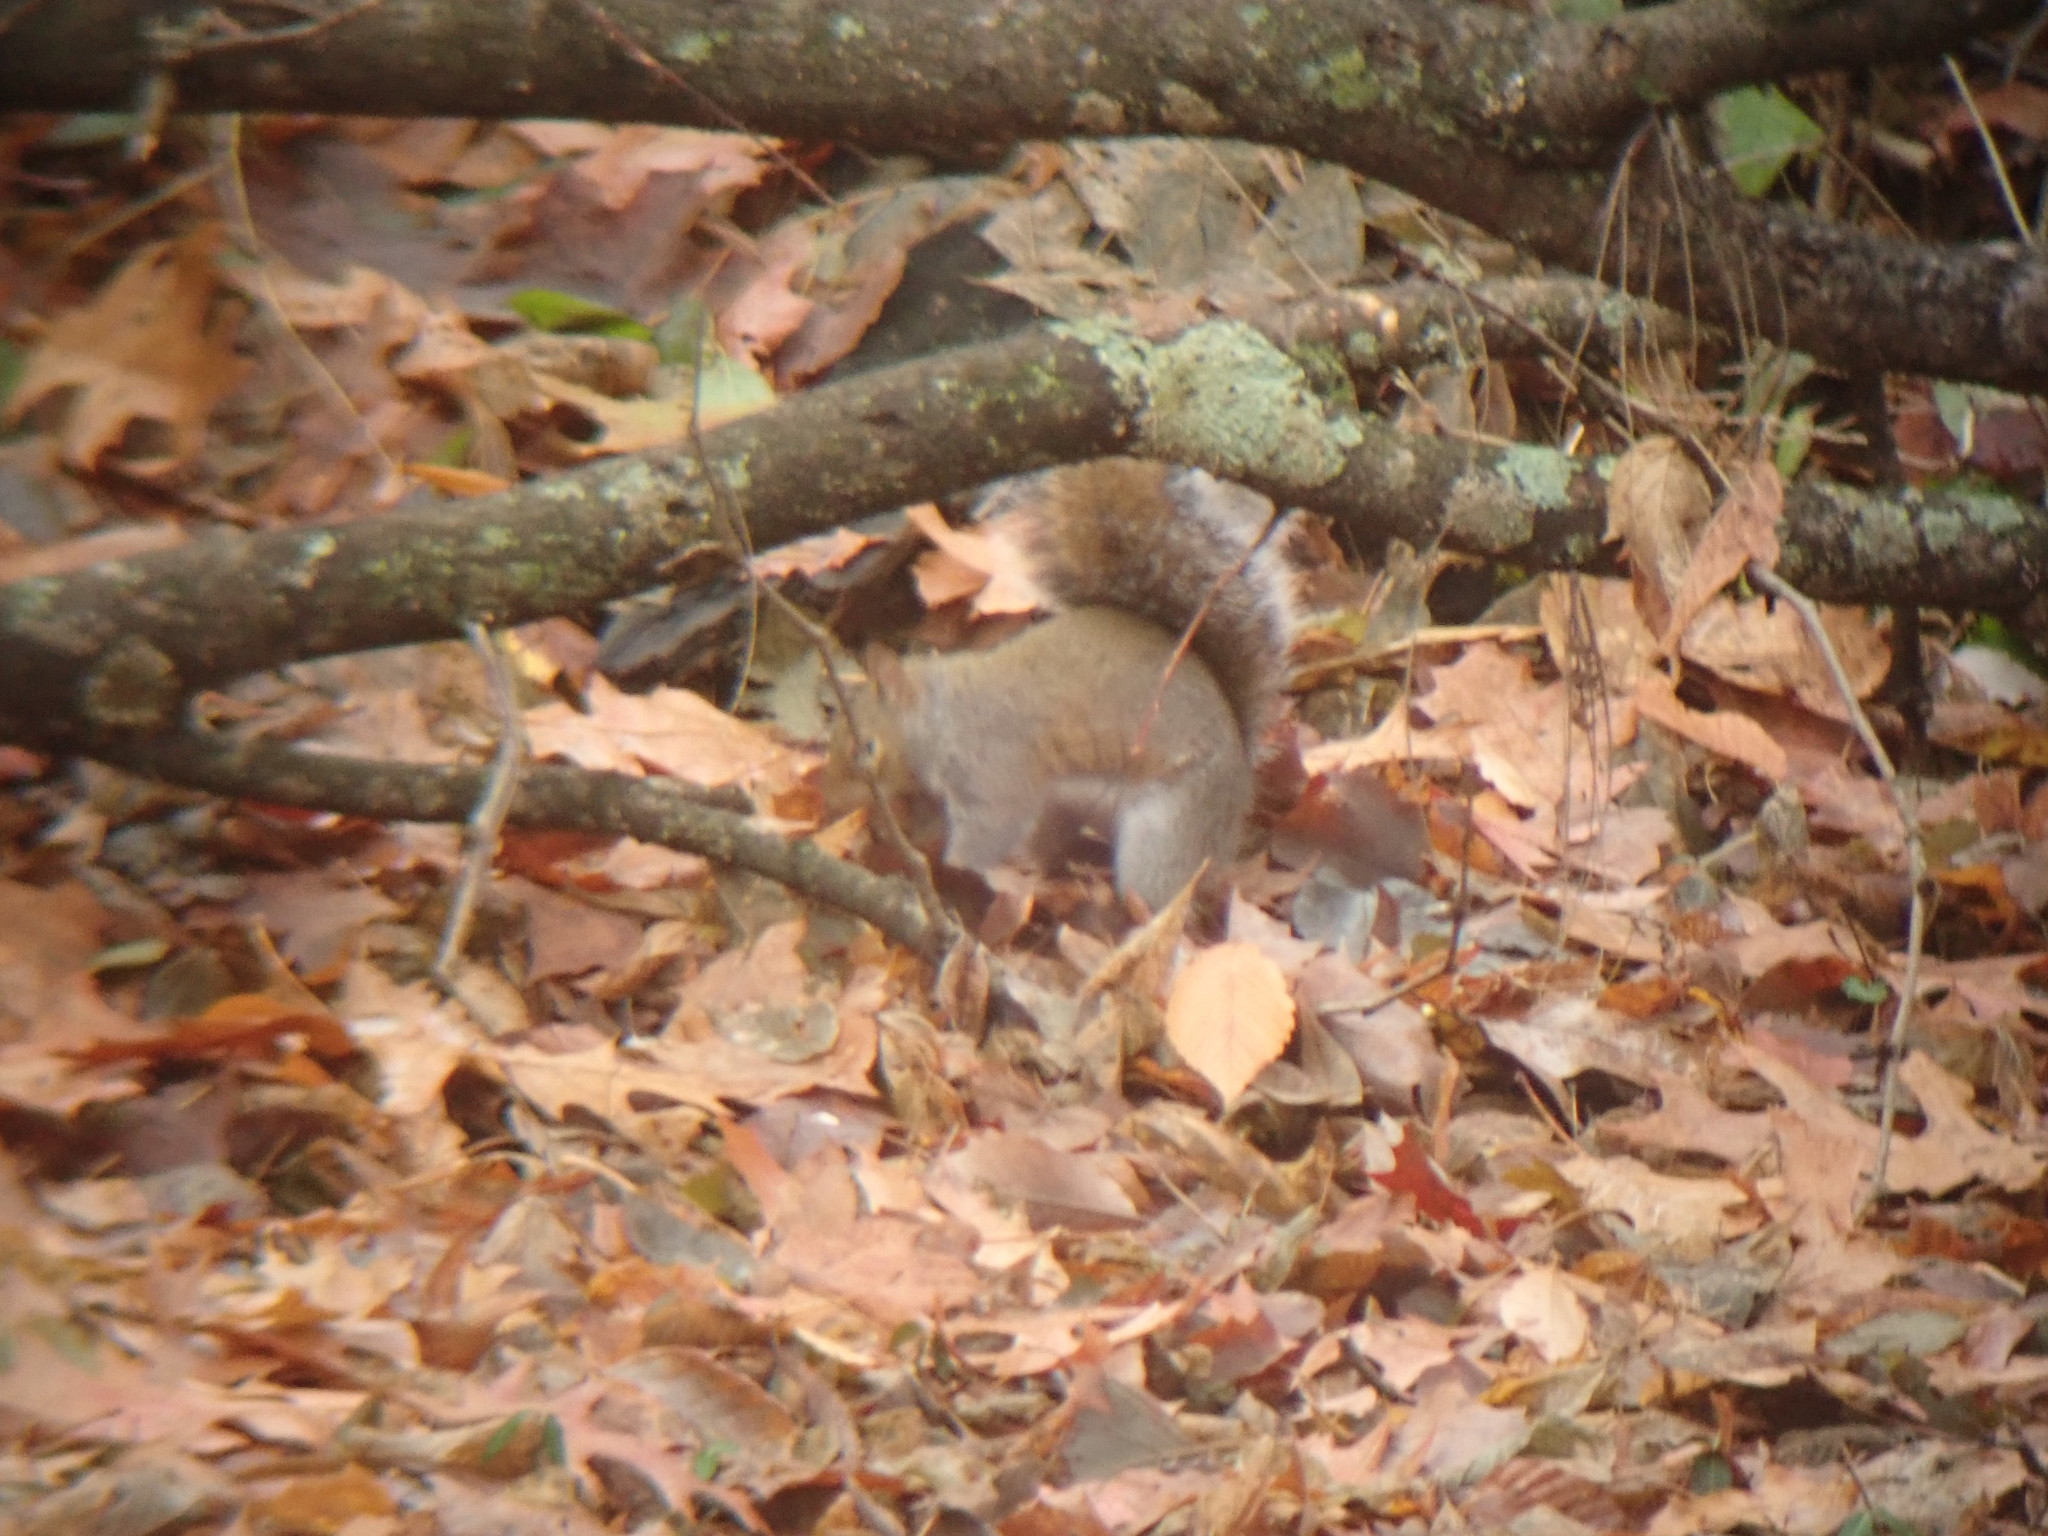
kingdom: Animalia
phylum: Chordata
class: Mammalia
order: Rodentia
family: Sciuridae
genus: Sciurus
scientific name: Sciurus carolinensis
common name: Eastern gray squirrel
